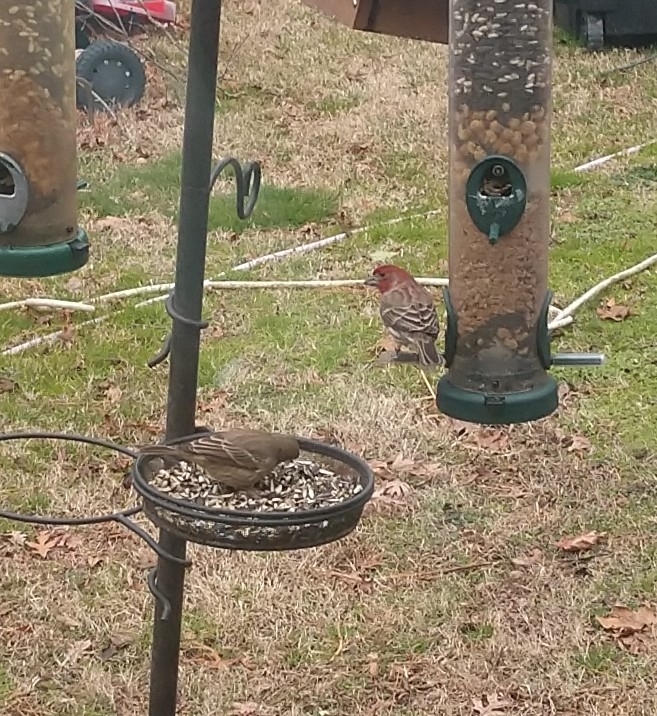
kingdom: Animalia
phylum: Chordata
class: Aves
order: Passeriformes
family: Fringillidae
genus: Haemorhous
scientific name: Haemorhous mexicanus
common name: House finch
